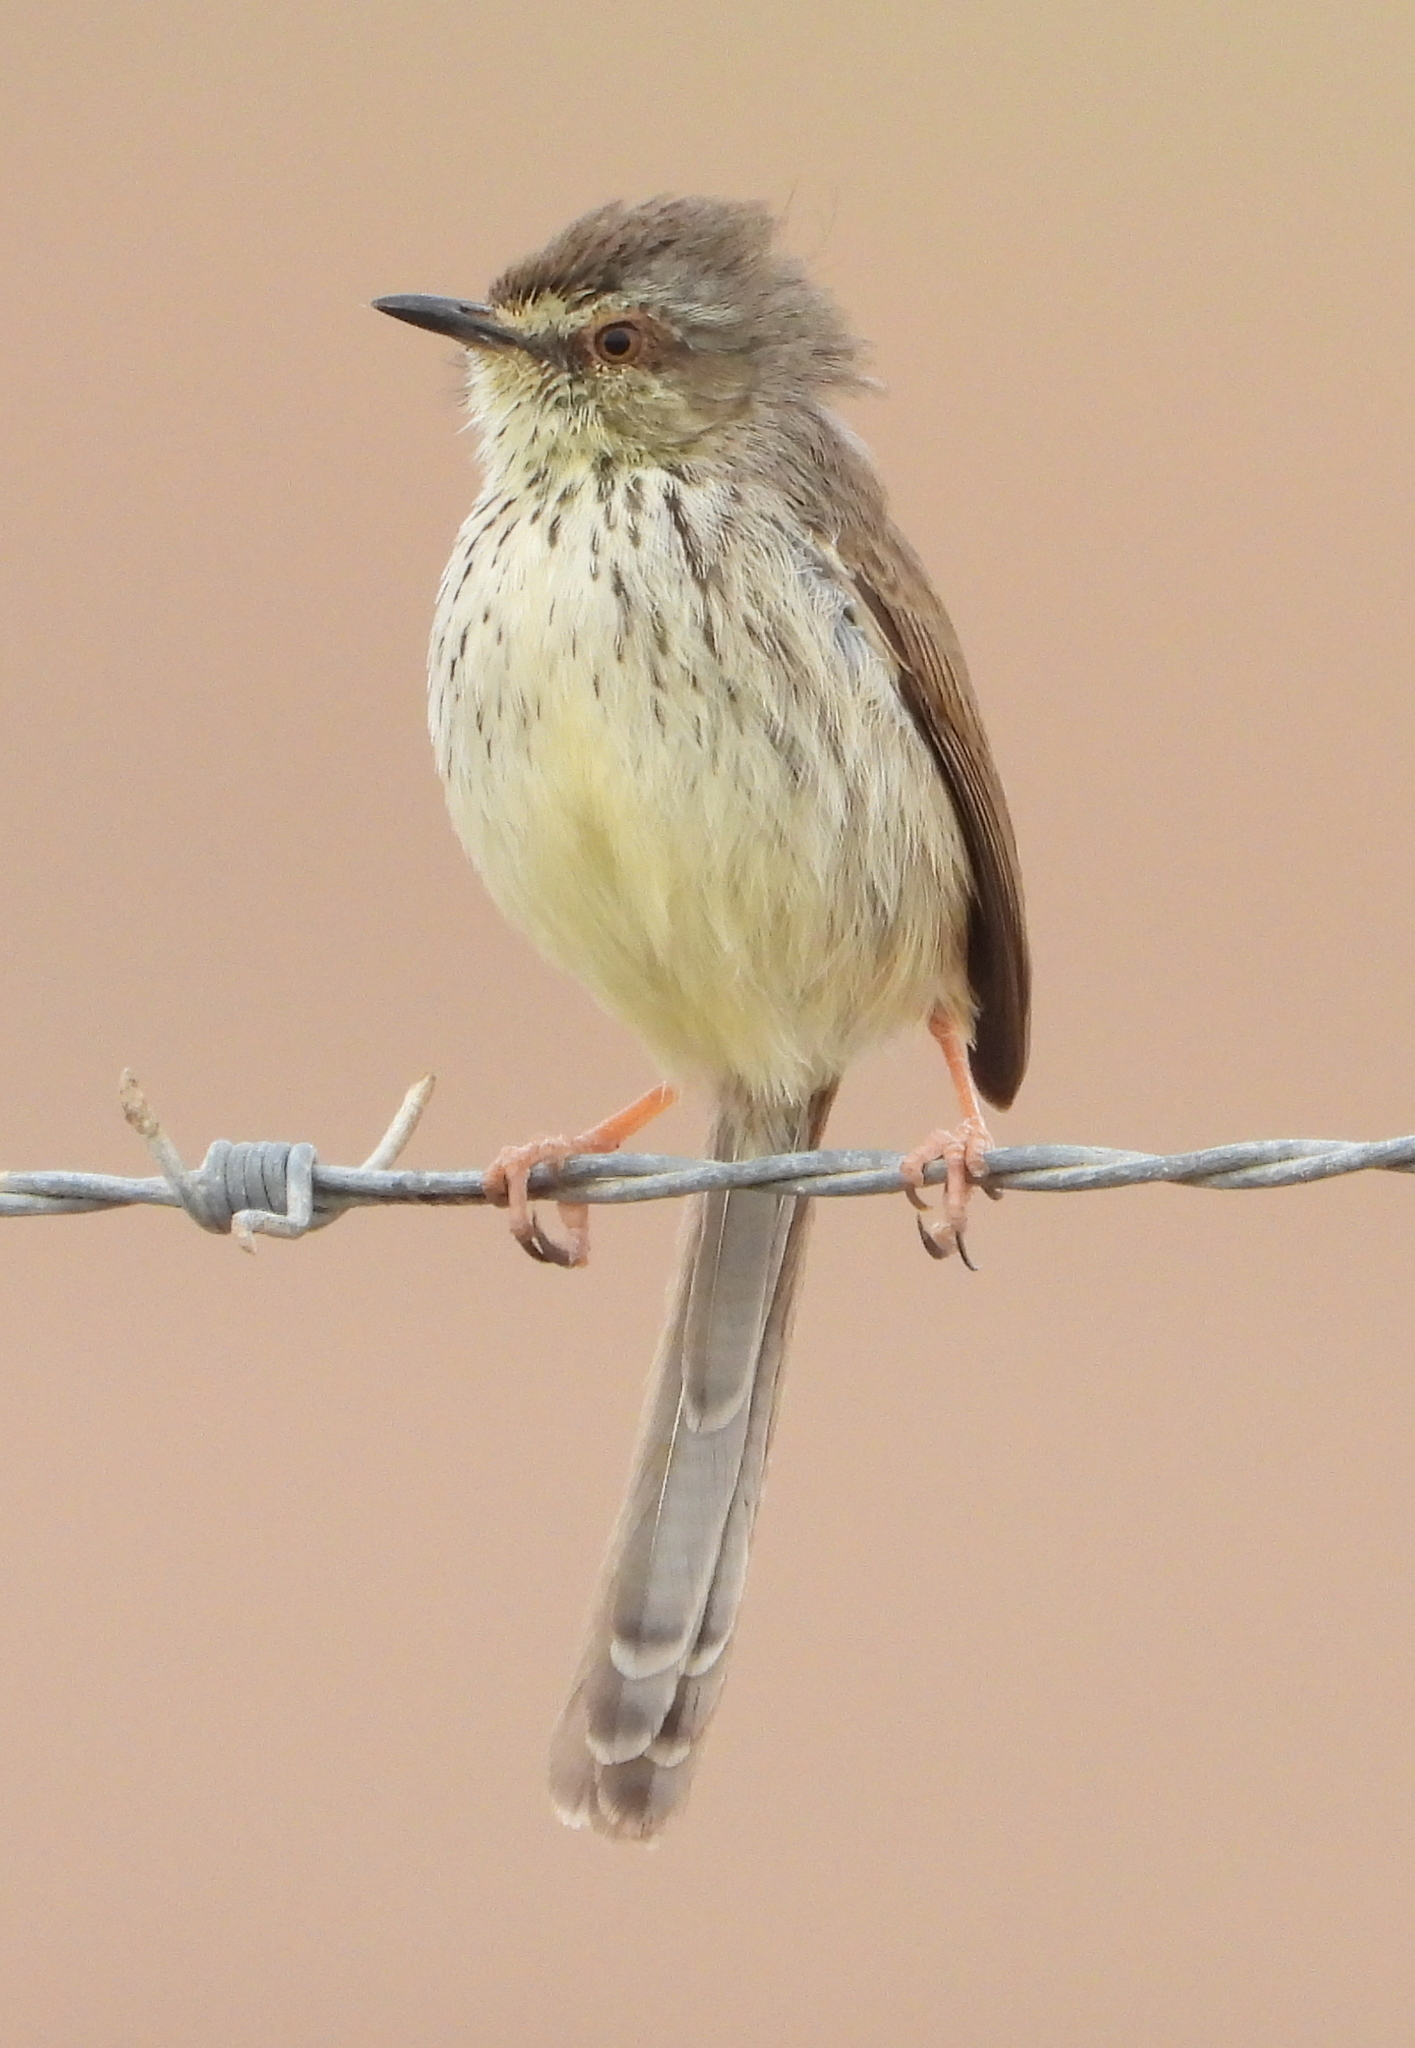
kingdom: Animalia
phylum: Chordata
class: Aves
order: Passeriformes
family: Cisticolidae
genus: Prinia
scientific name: Prinia maculosa
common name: Karoo prinia
